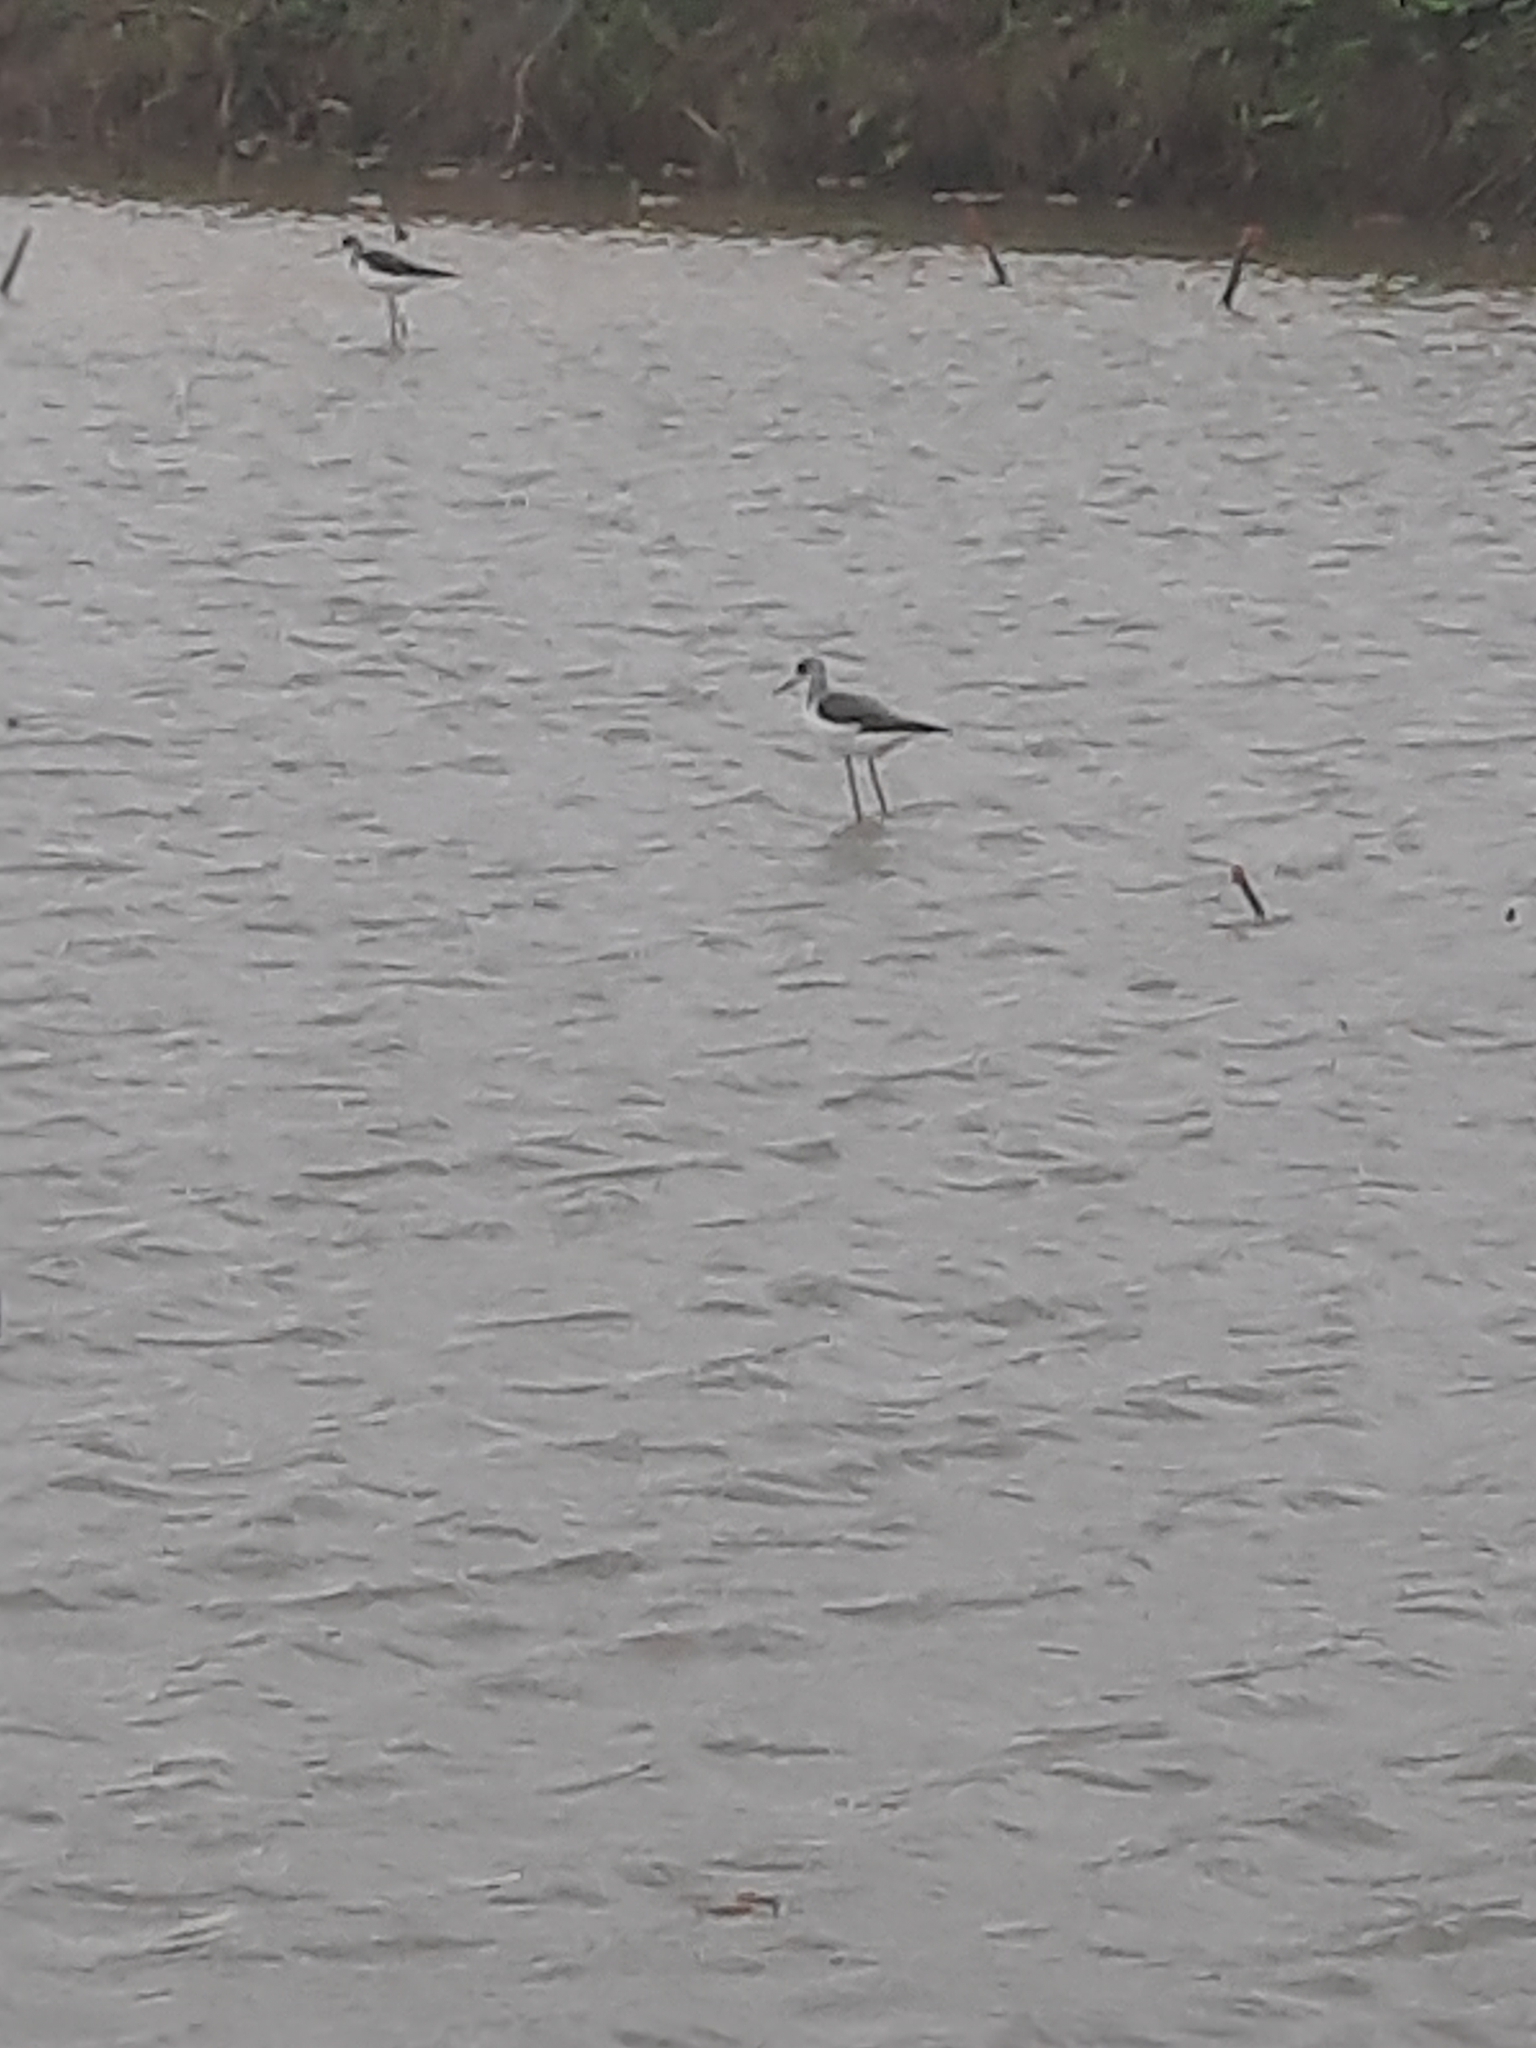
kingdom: Animalia
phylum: Chordata
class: Aves
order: Charadriiformes
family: Recurvirostridae
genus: Himantopus
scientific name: Himantopus himantopus
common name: Black-winged stilt
